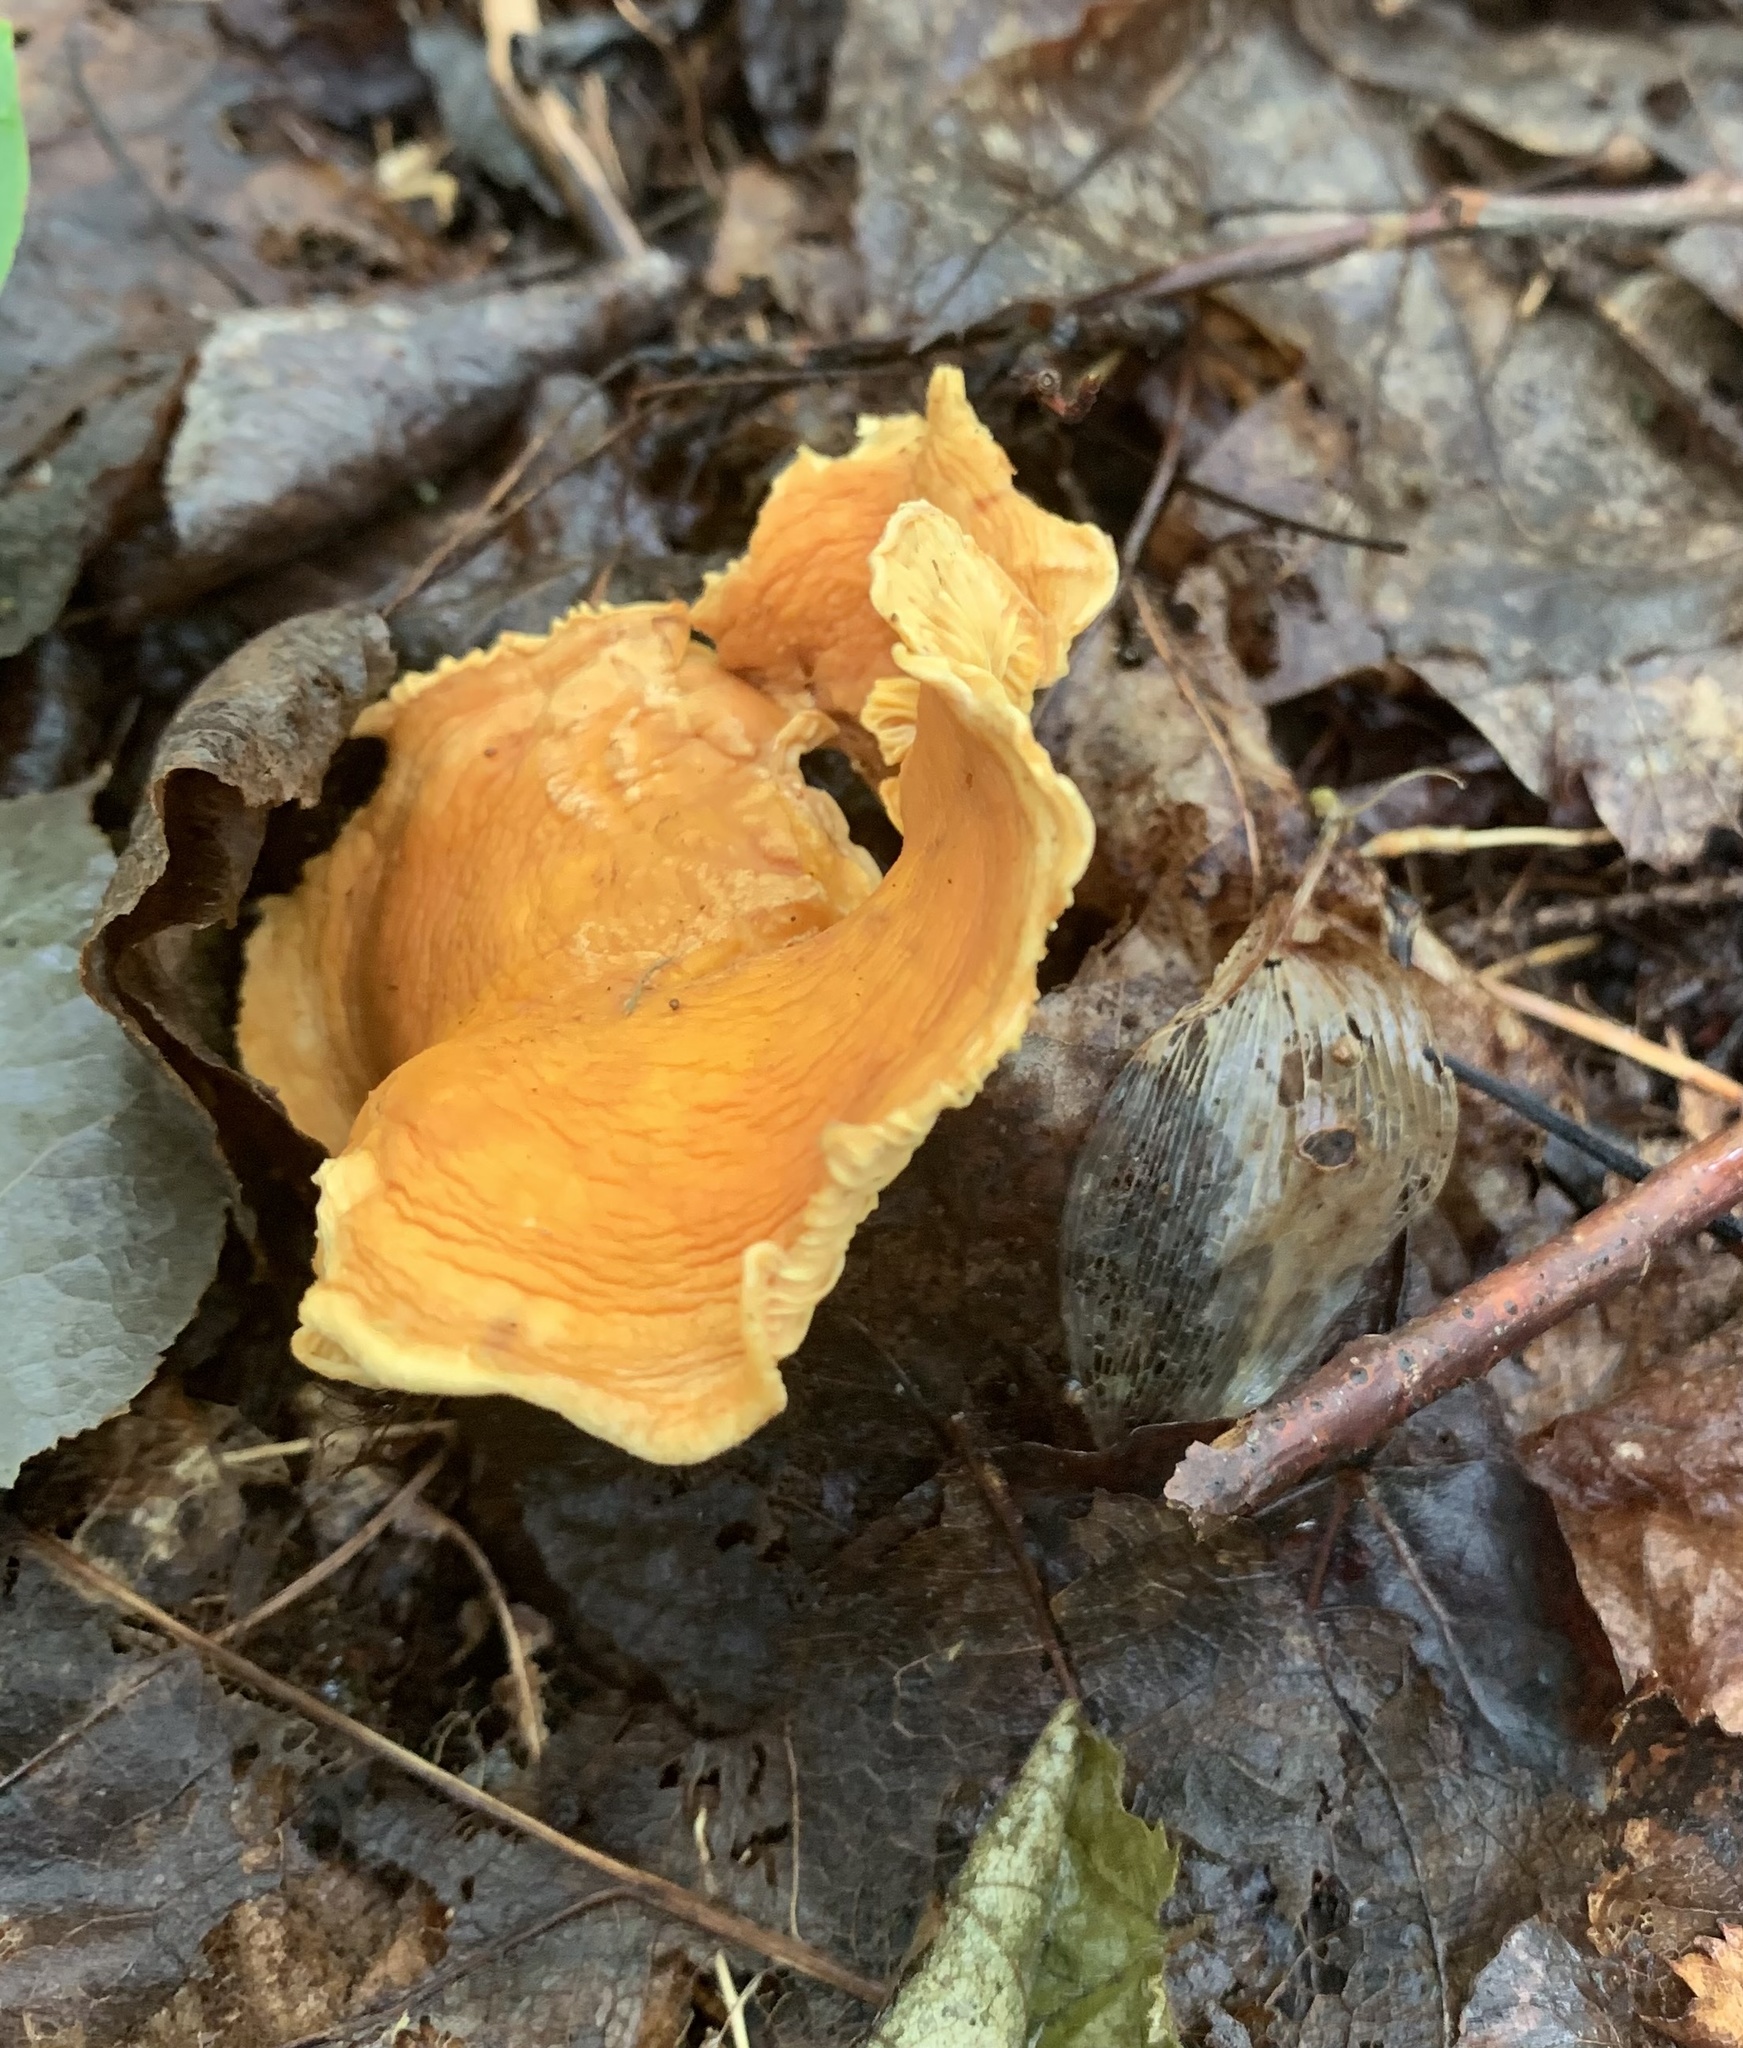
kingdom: Fungi
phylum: Basidiomycota
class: Agaricomycetes
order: Cantharellales
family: Hydnaceae
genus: Cantharellus
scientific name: Cantharellus enelensis
